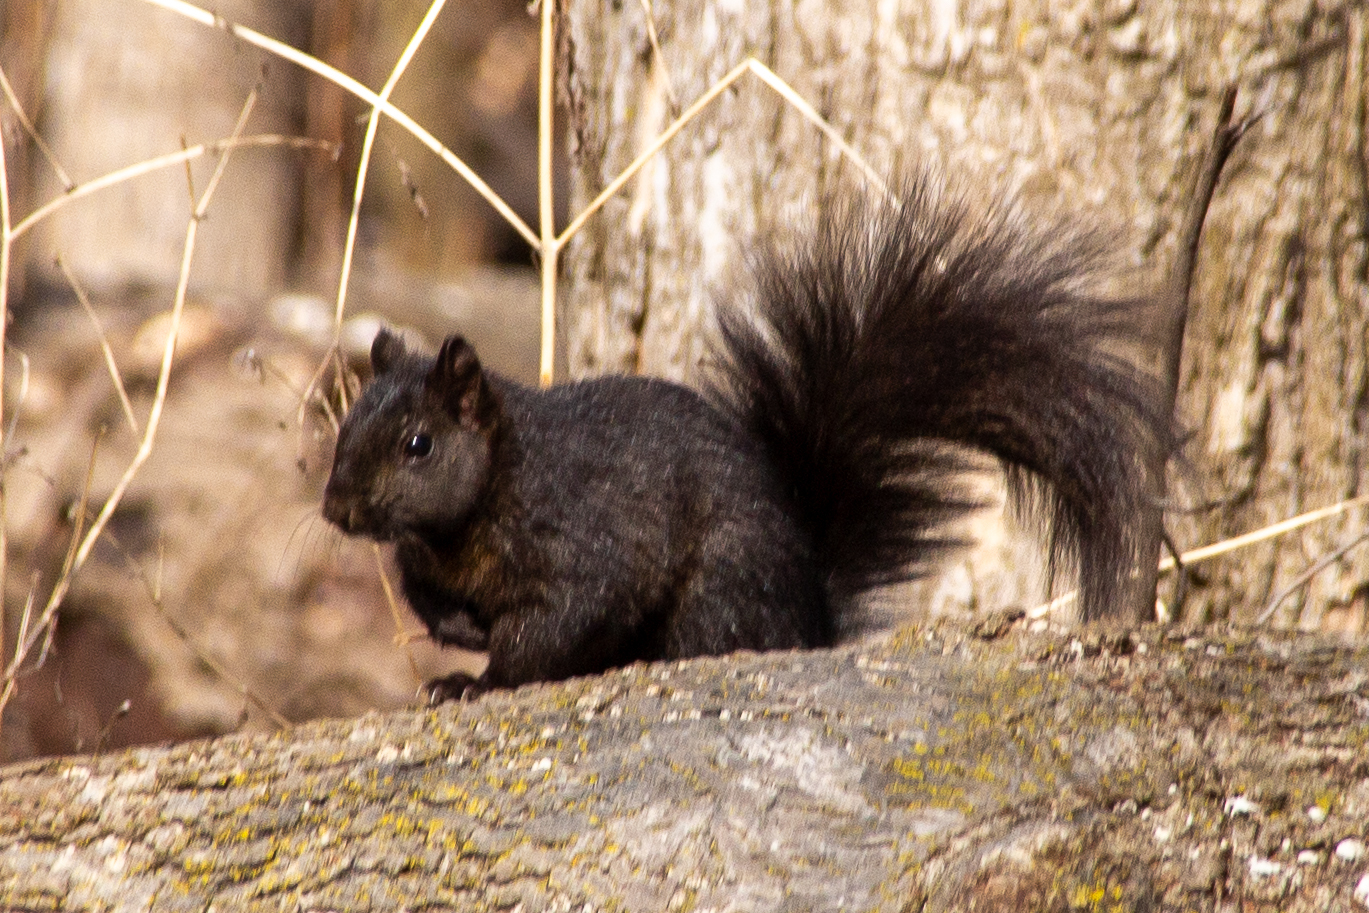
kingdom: Animalia
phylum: Chordata
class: Mammalia
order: Rodentia
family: Sciuridae
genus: Sciurus
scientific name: Sciurus carolinensis
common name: Eastern gray squirrel
